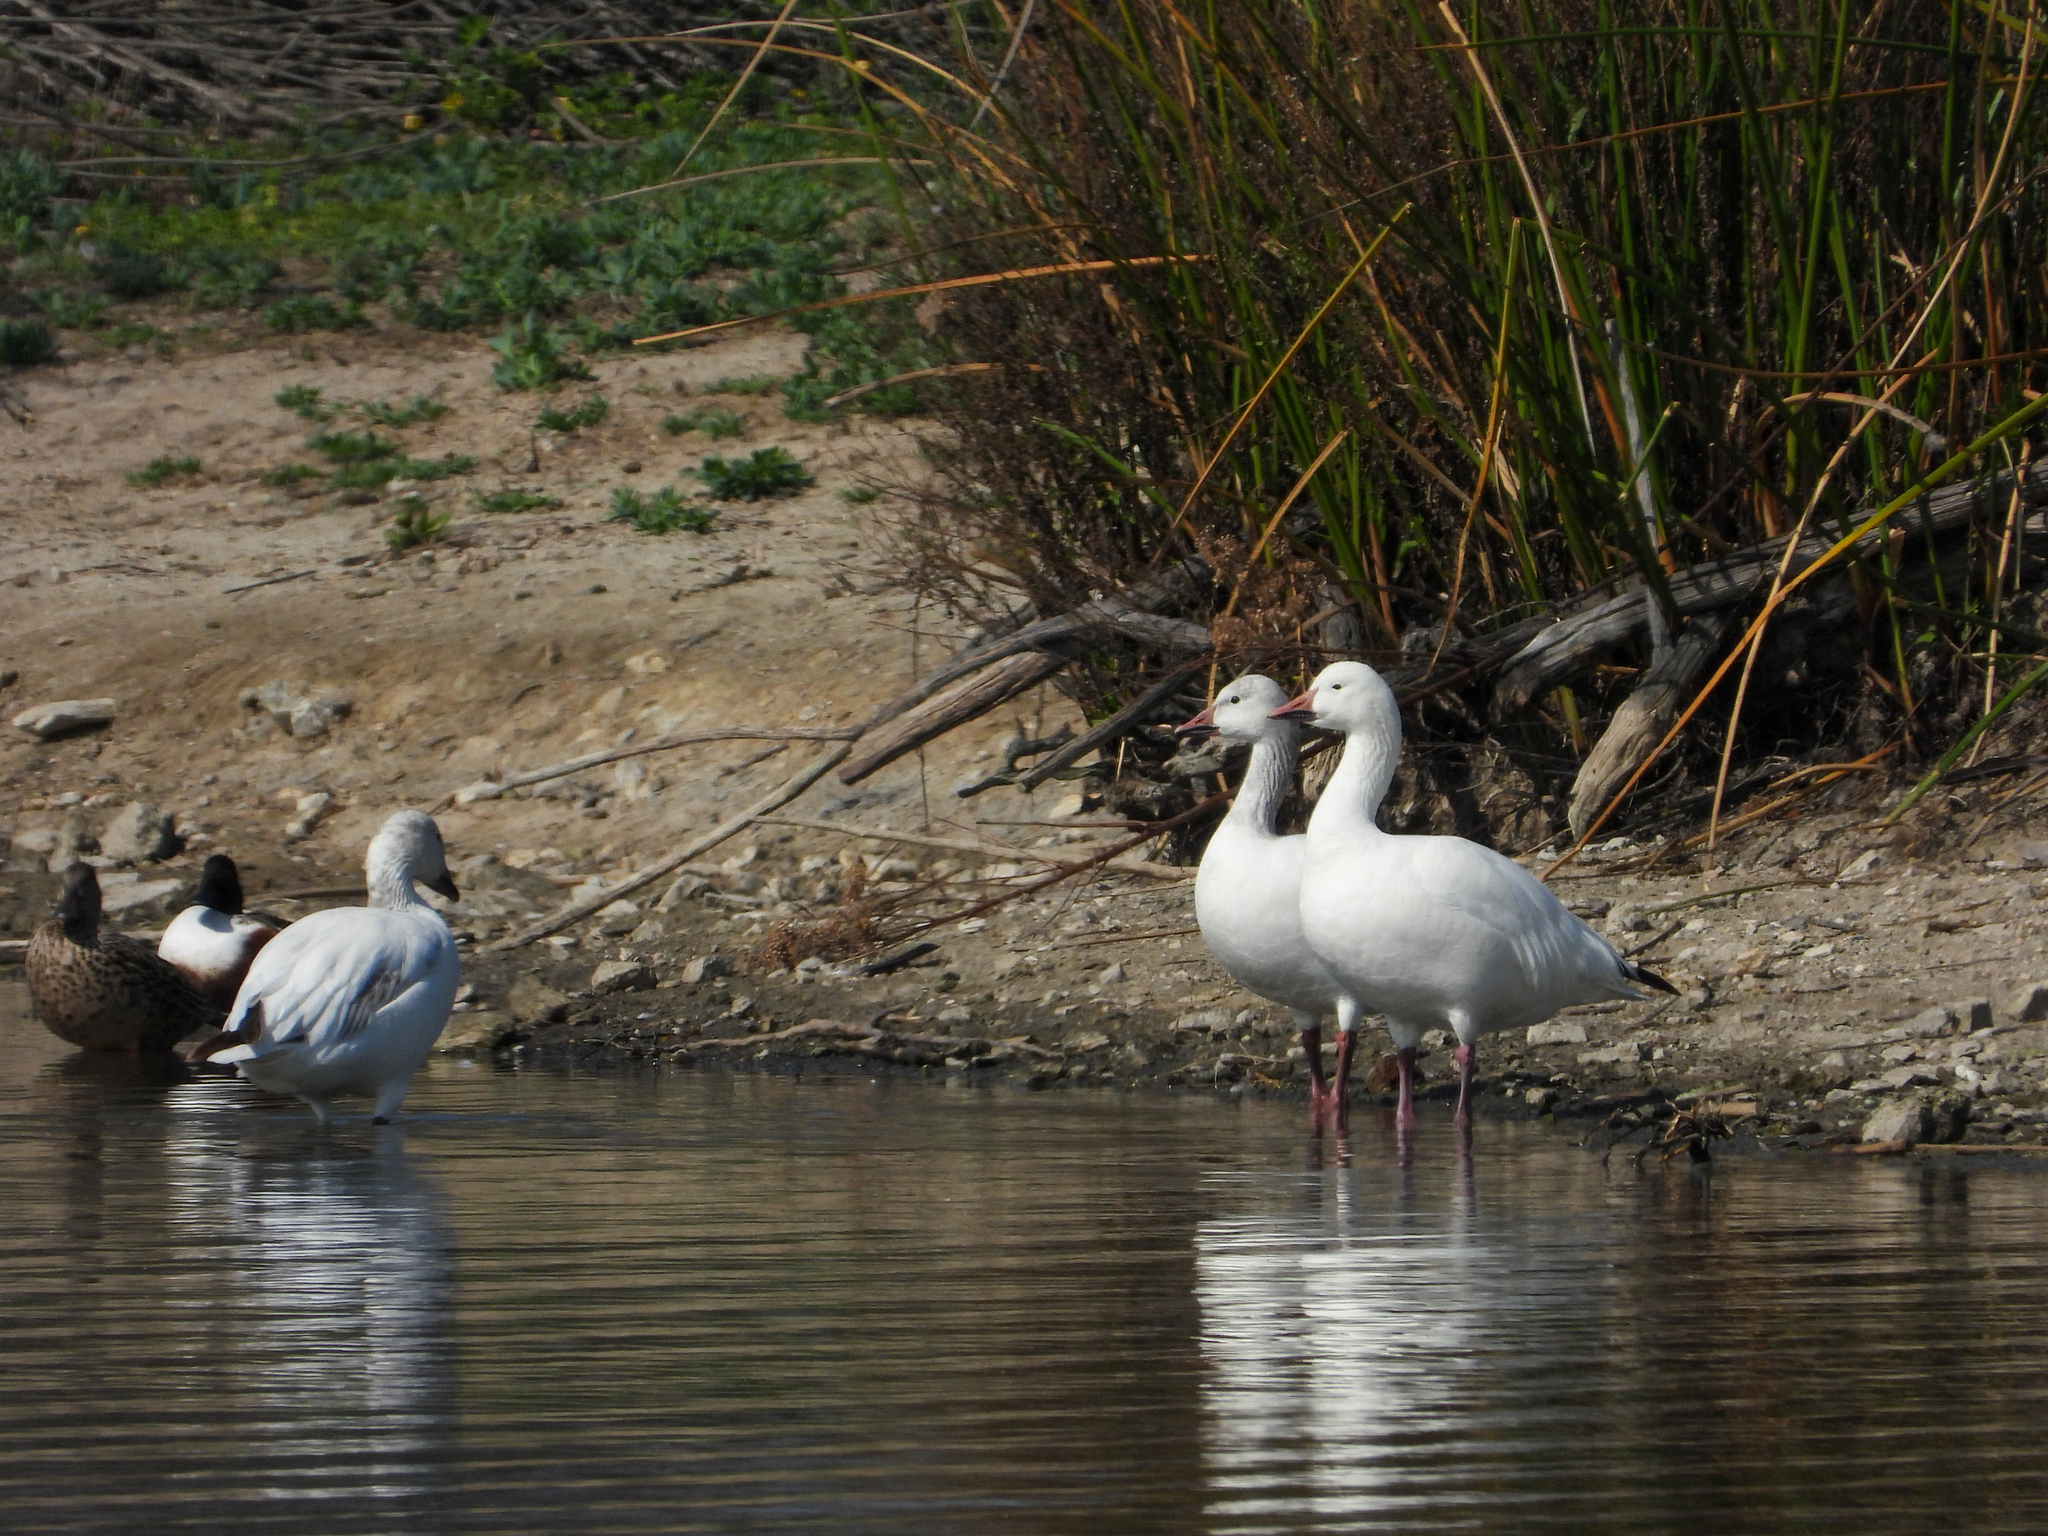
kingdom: Animalia
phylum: Chordata
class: Aves
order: Anseriformes
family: Anatidae
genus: Anser
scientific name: Anser caerulescens
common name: Snow goose
